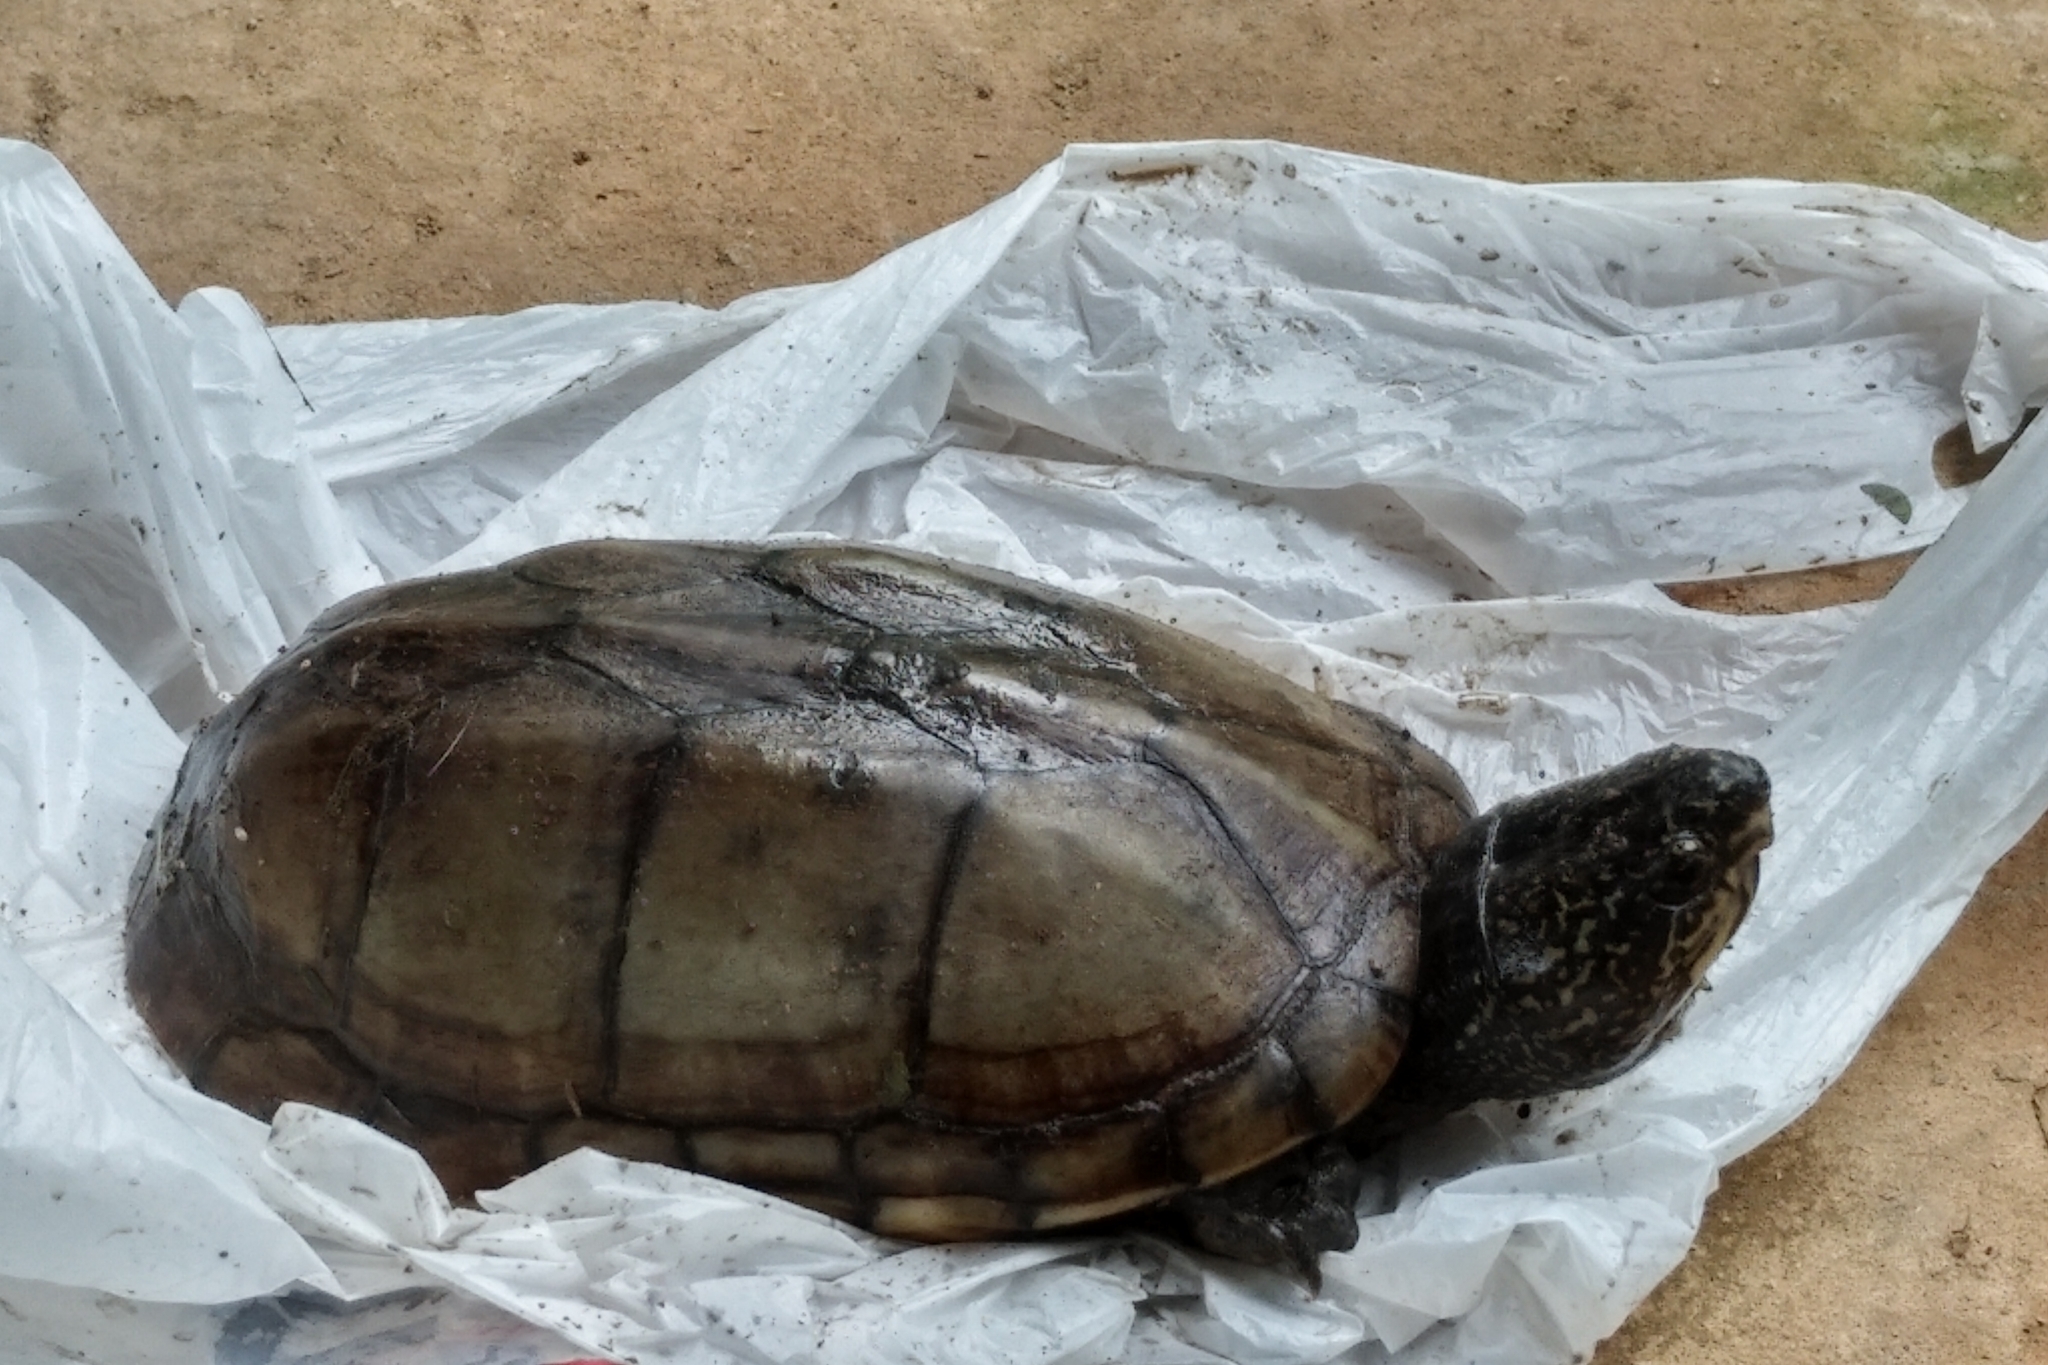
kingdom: Animalia
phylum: Chordata
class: Testudines
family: Kinosternidae
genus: Kinosternon
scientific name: Kinosternon scorpioides
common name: Scorpion mud turtle
